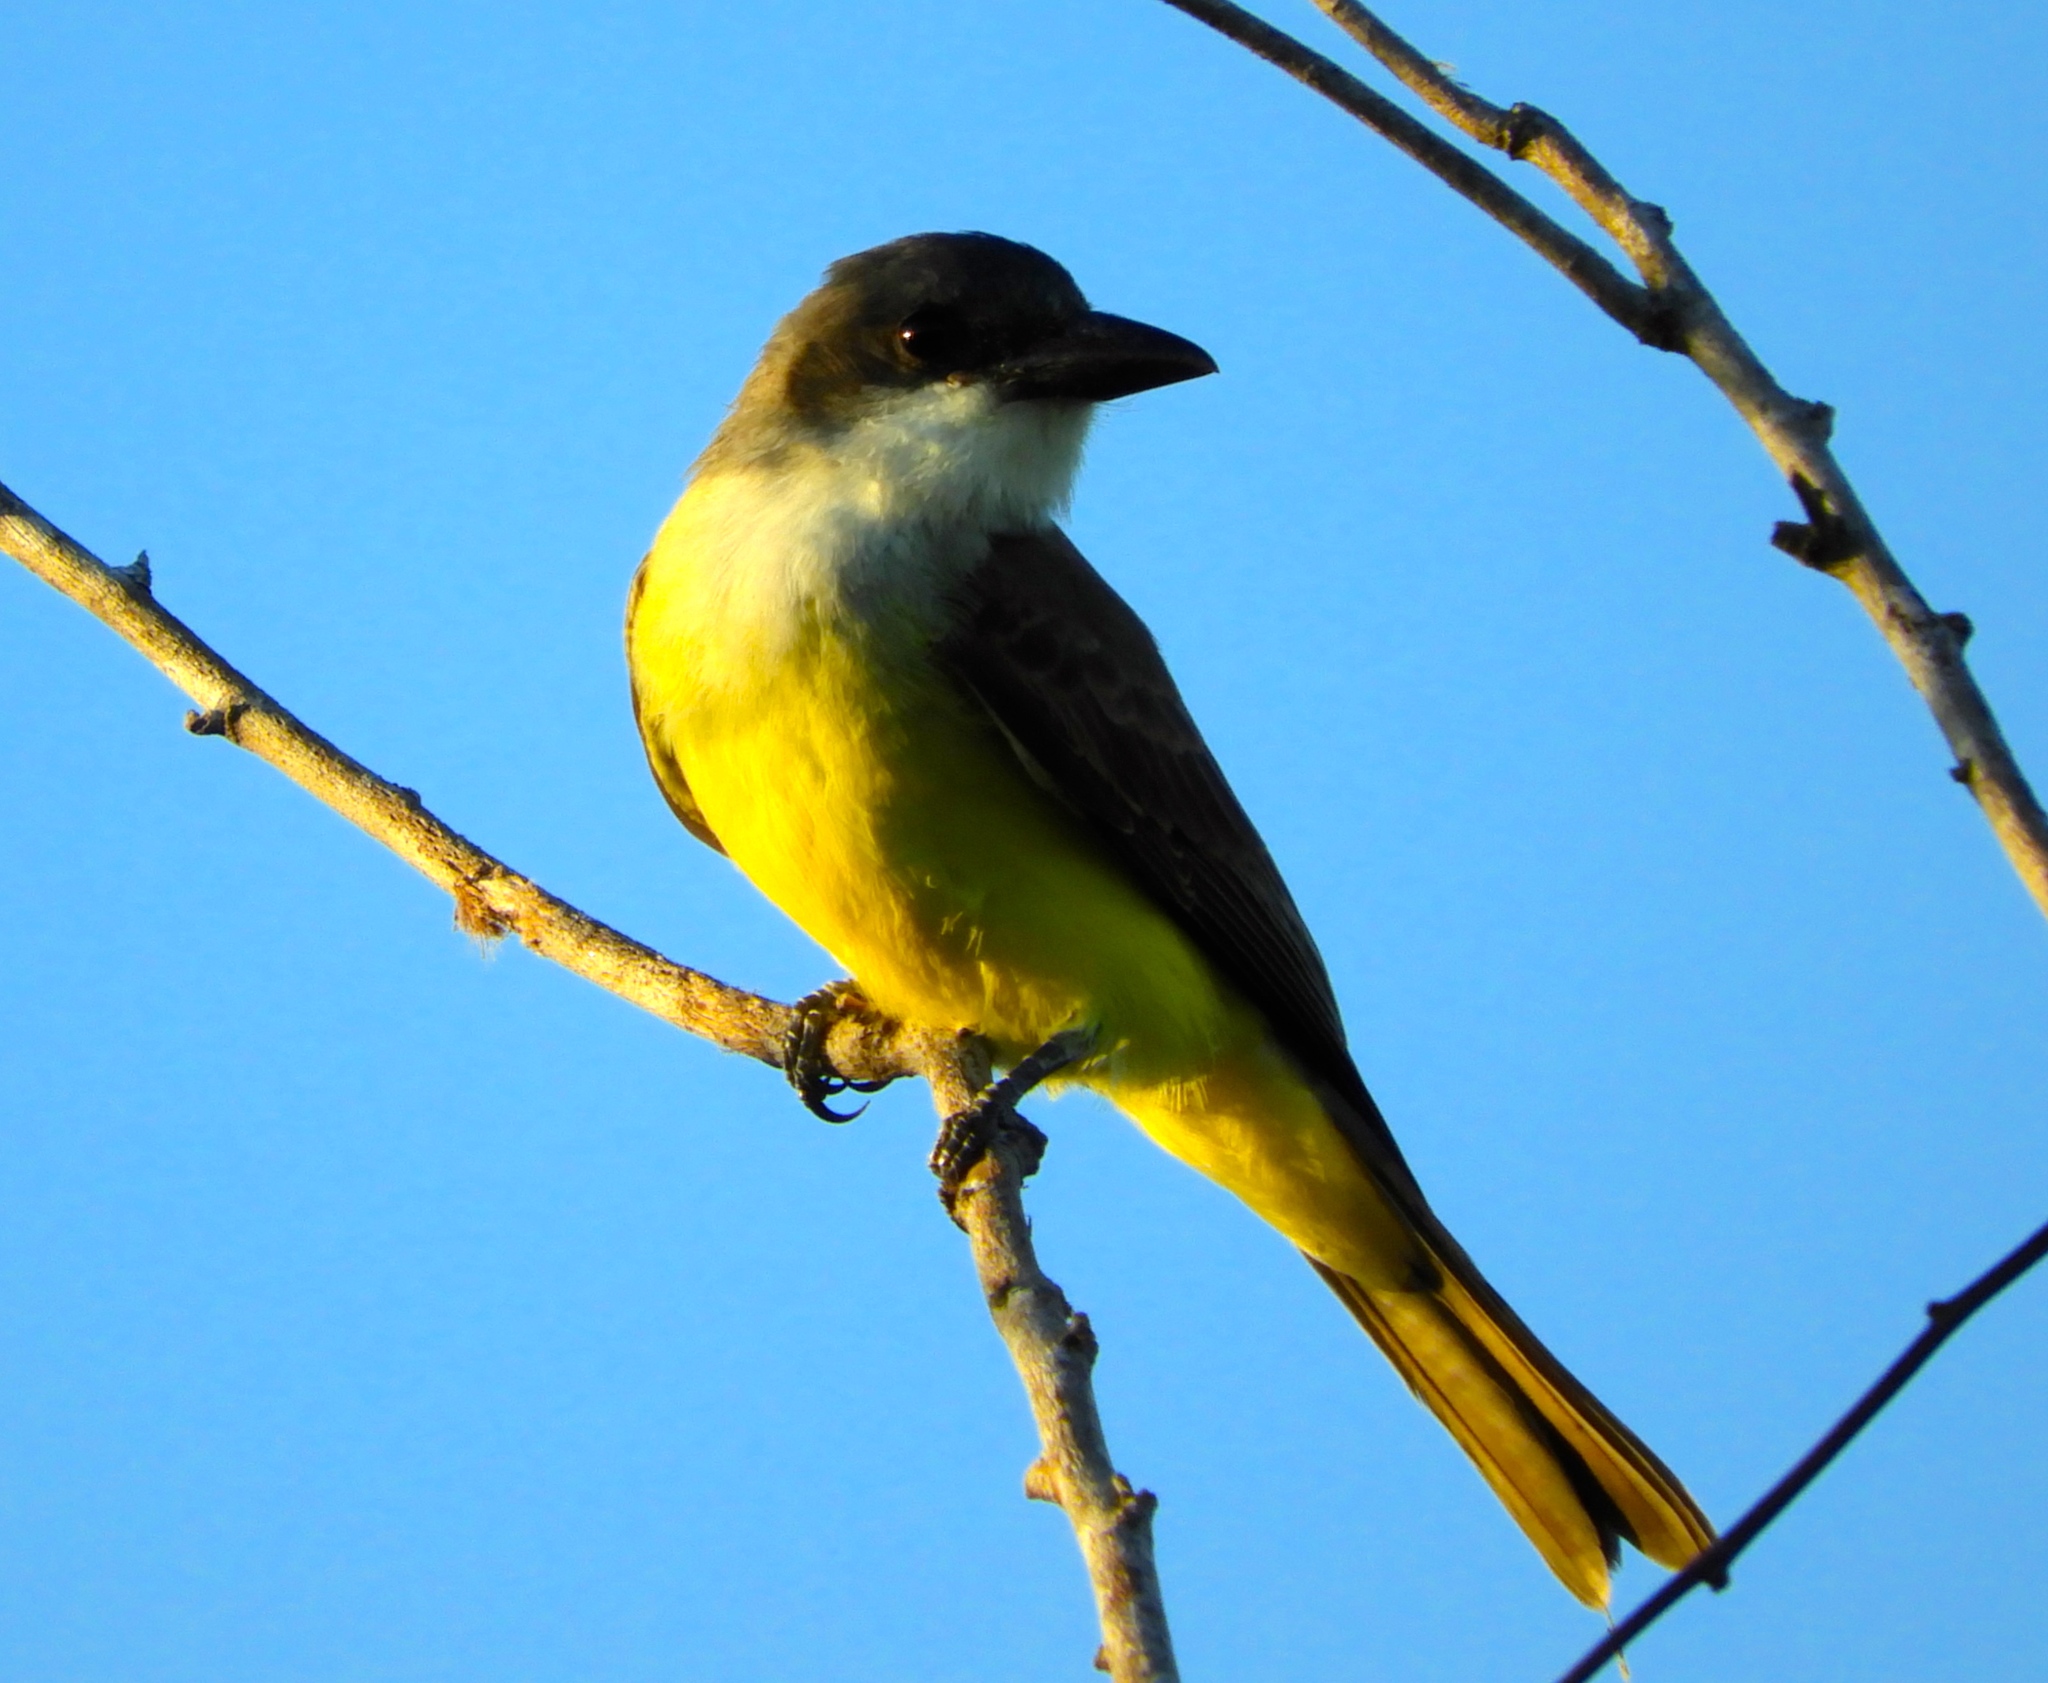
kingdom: Animalia
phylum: Chordata
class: Aves
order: Passeriformes
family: Tyrannidae
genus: Tyrannus
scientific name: Tyrannus crassirostris
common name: Thick-billed kingbird
